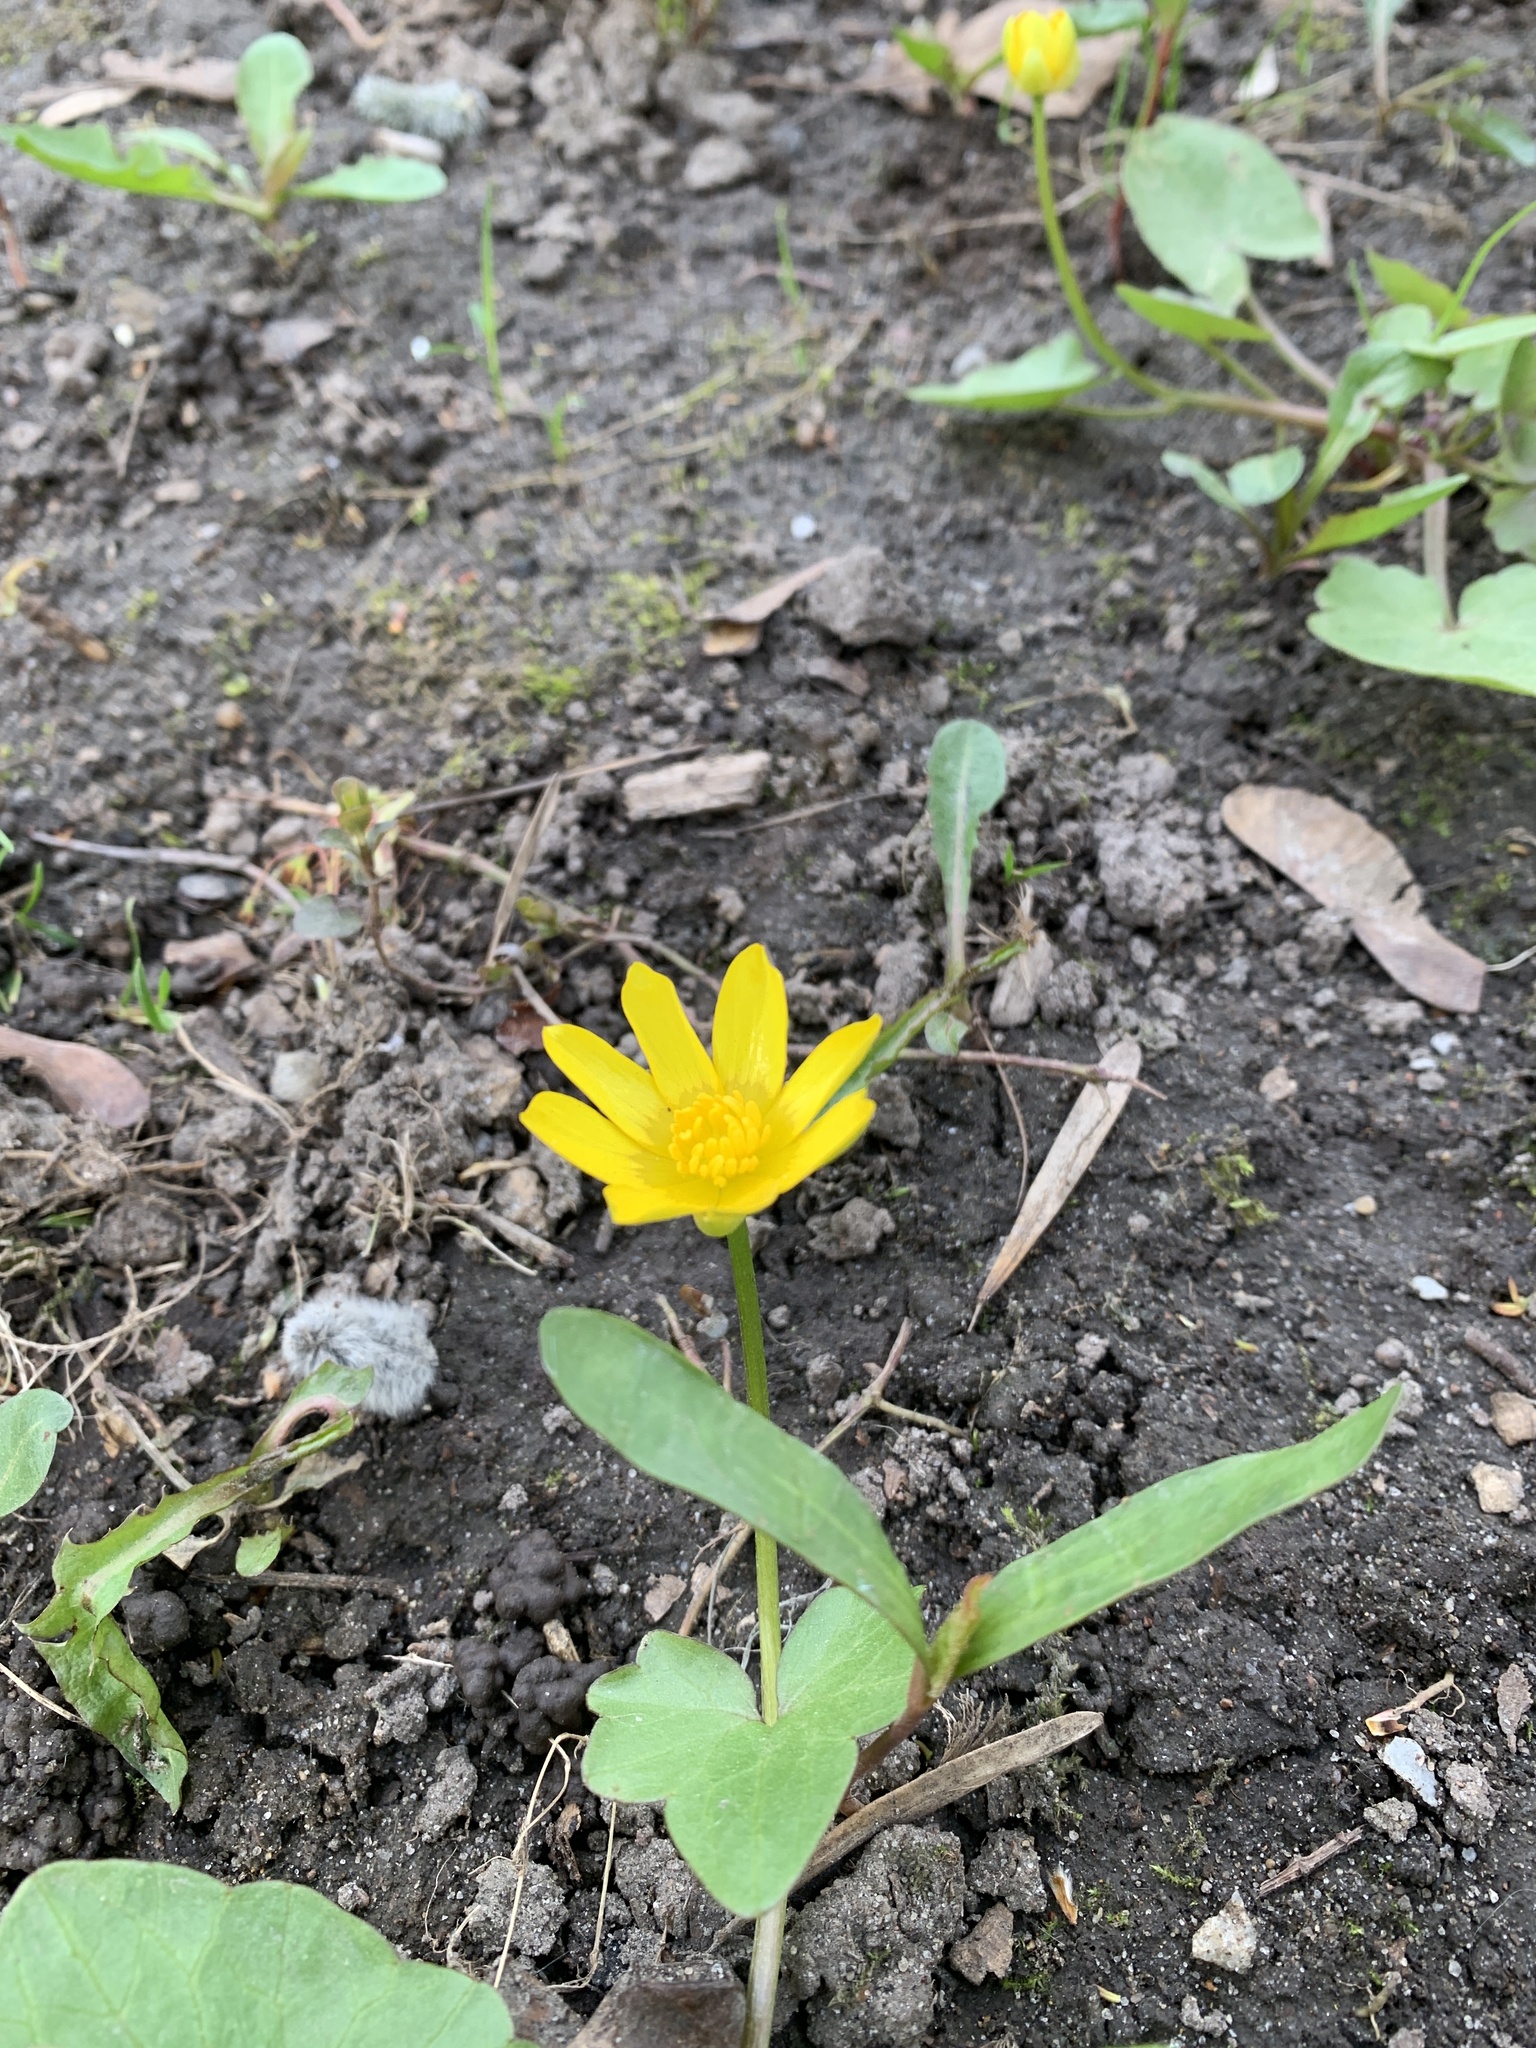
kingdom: Plantae
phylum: Tracheophyta
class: Magnoliopsida
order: Ranunculales
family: Ranunculaceae
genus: Ficaria
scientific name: Ficaria verna
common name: Lesser celandine
